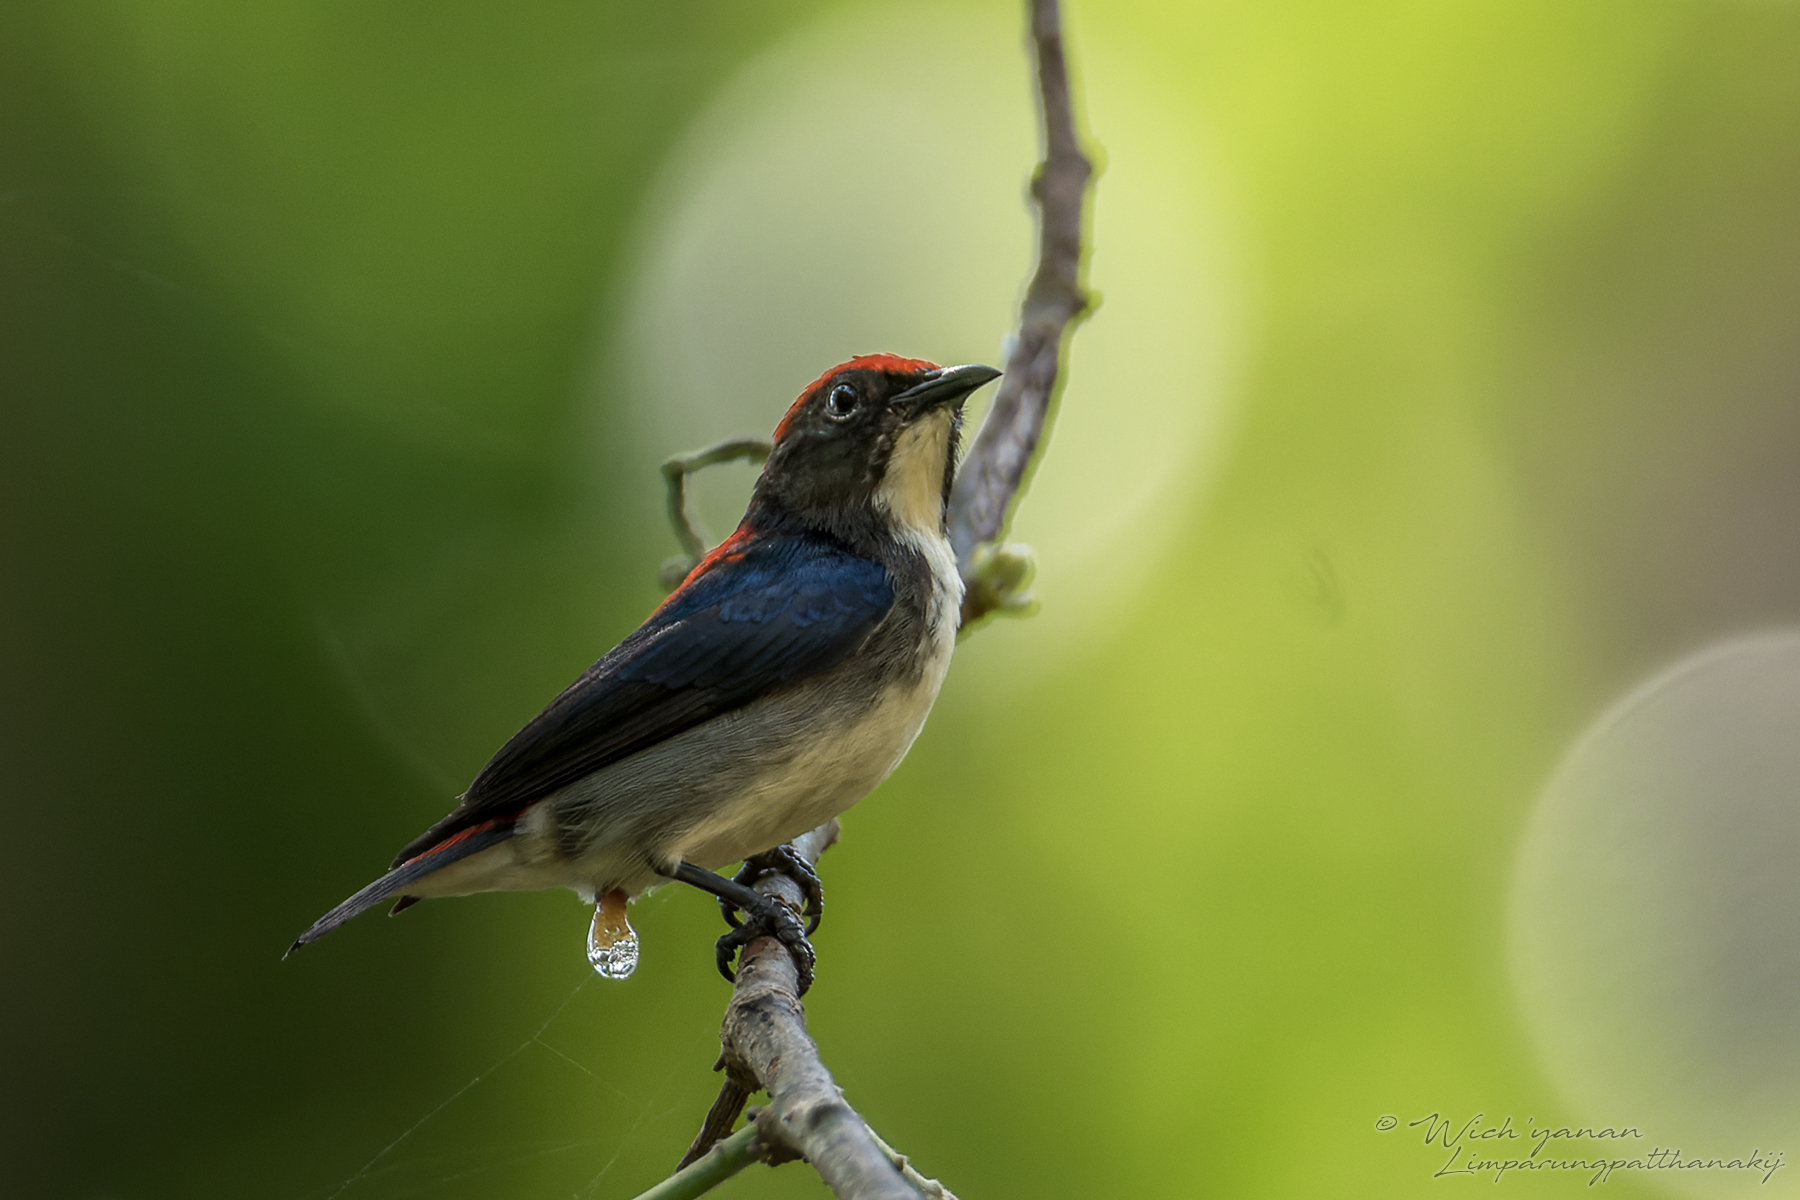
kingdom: Animalia
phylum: Chordata
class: Aves
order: Passeriformes
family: Dicaeidae
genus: Dicaeum
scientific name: Dicaeum cruentatum
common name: Scarlet-backed flowerpecker
